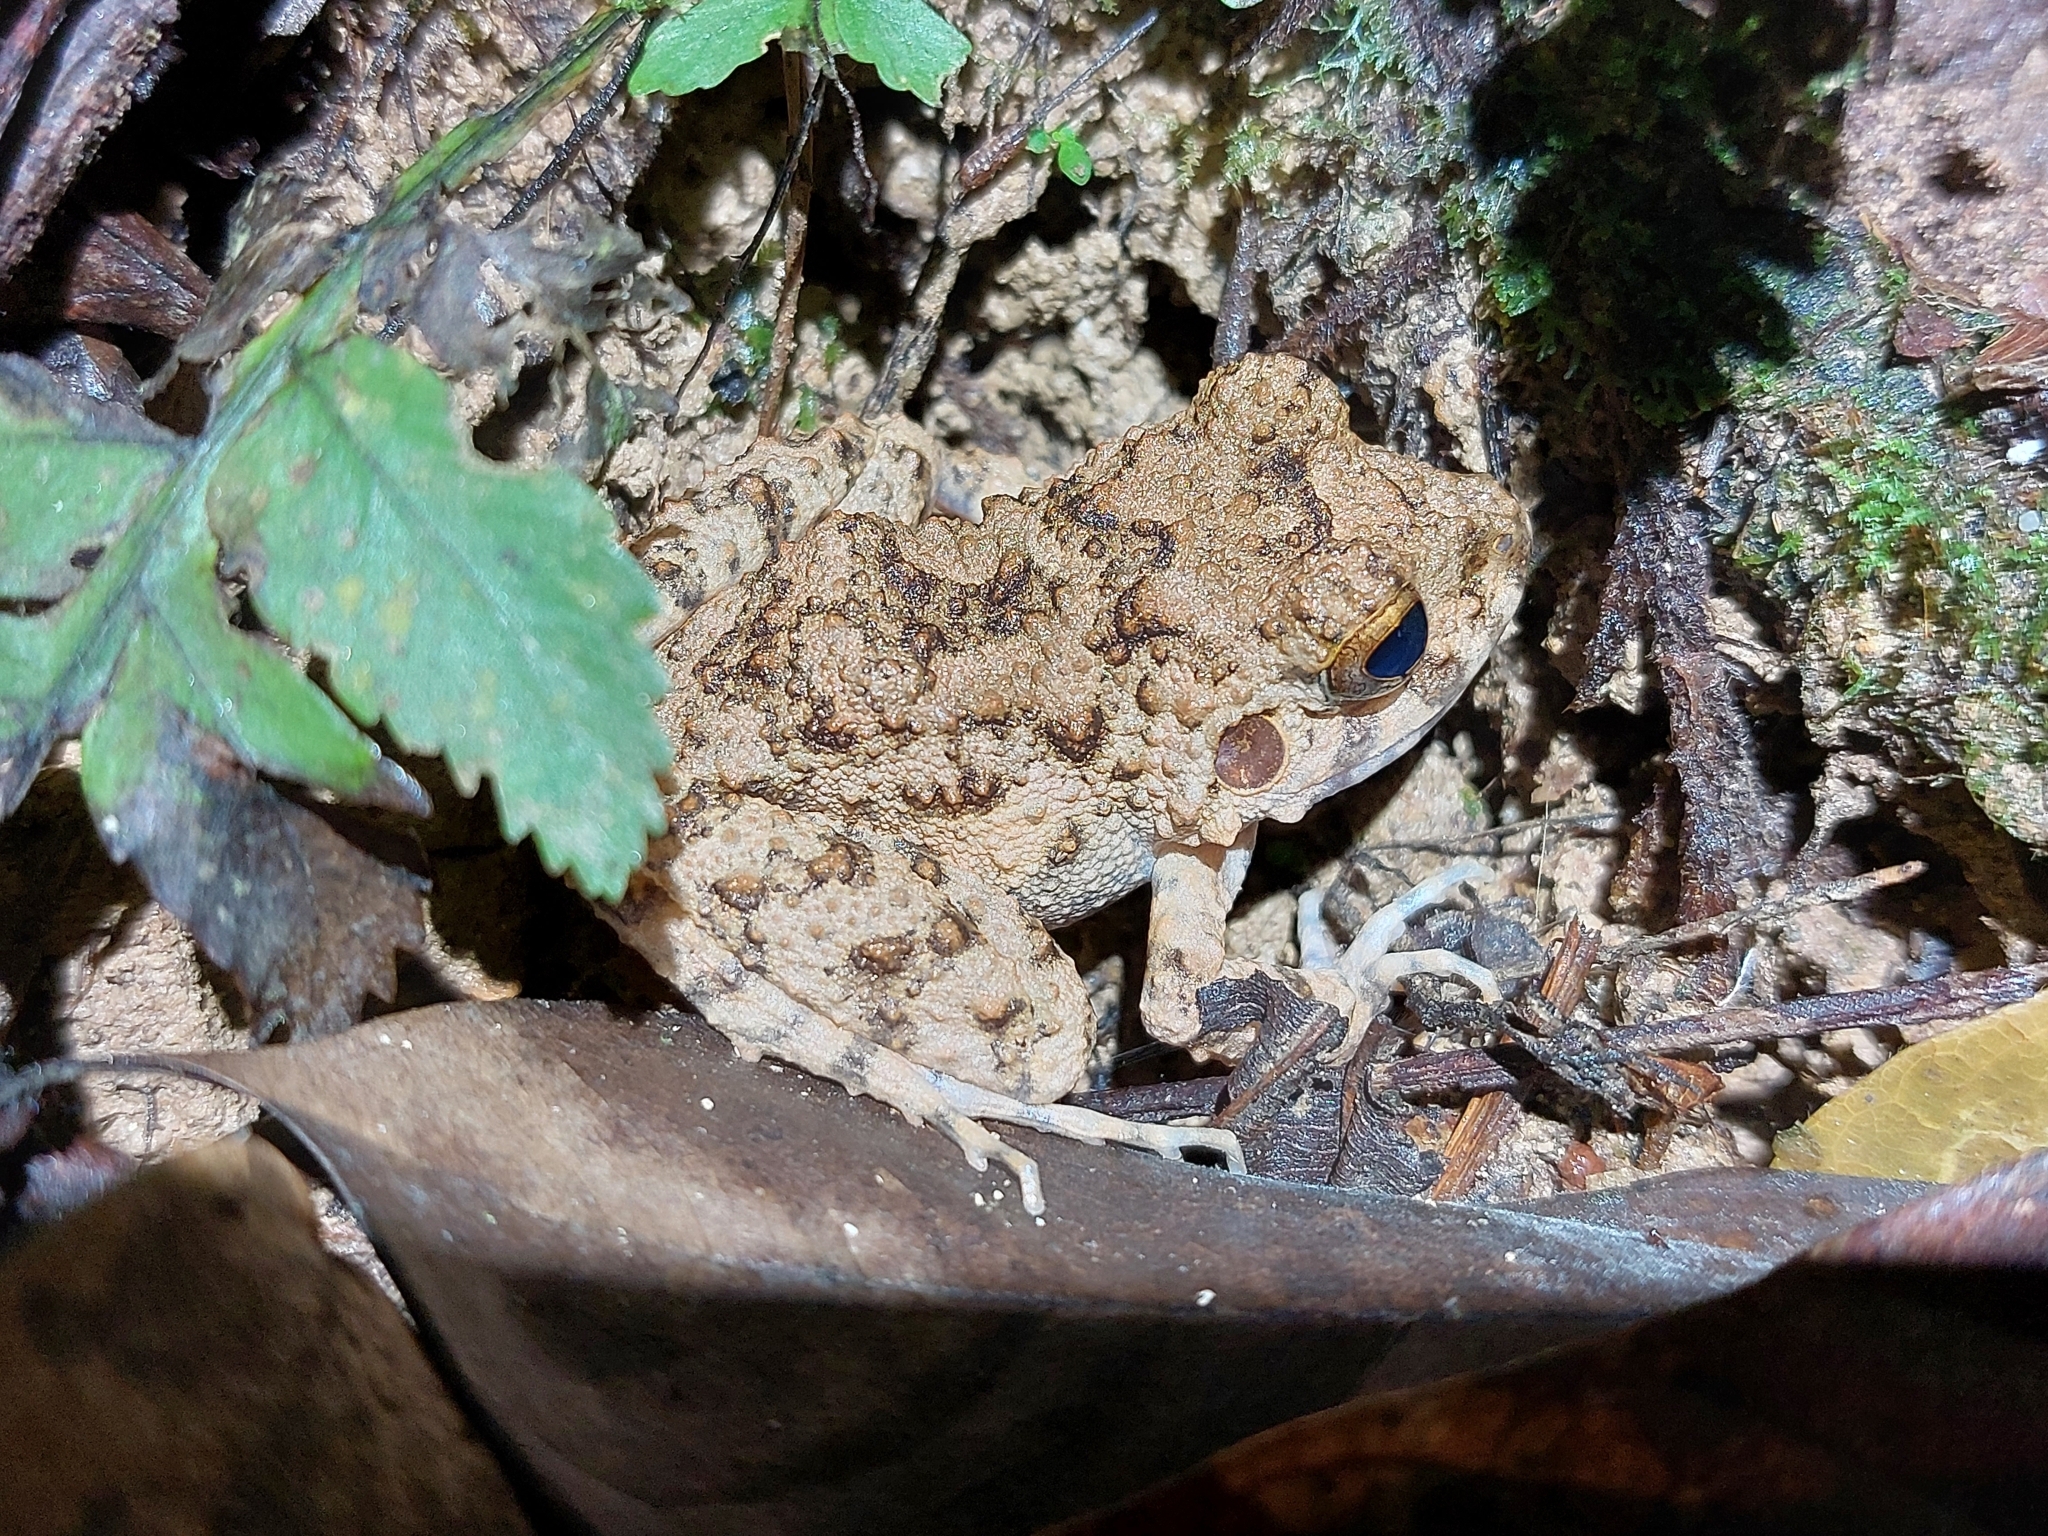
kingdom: Animalia
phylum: Chordata
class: Amphibia
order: Anura
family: Craugastoridae
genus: Oreobates
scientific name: Oreobates quixensis
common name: Common big-headed frog
